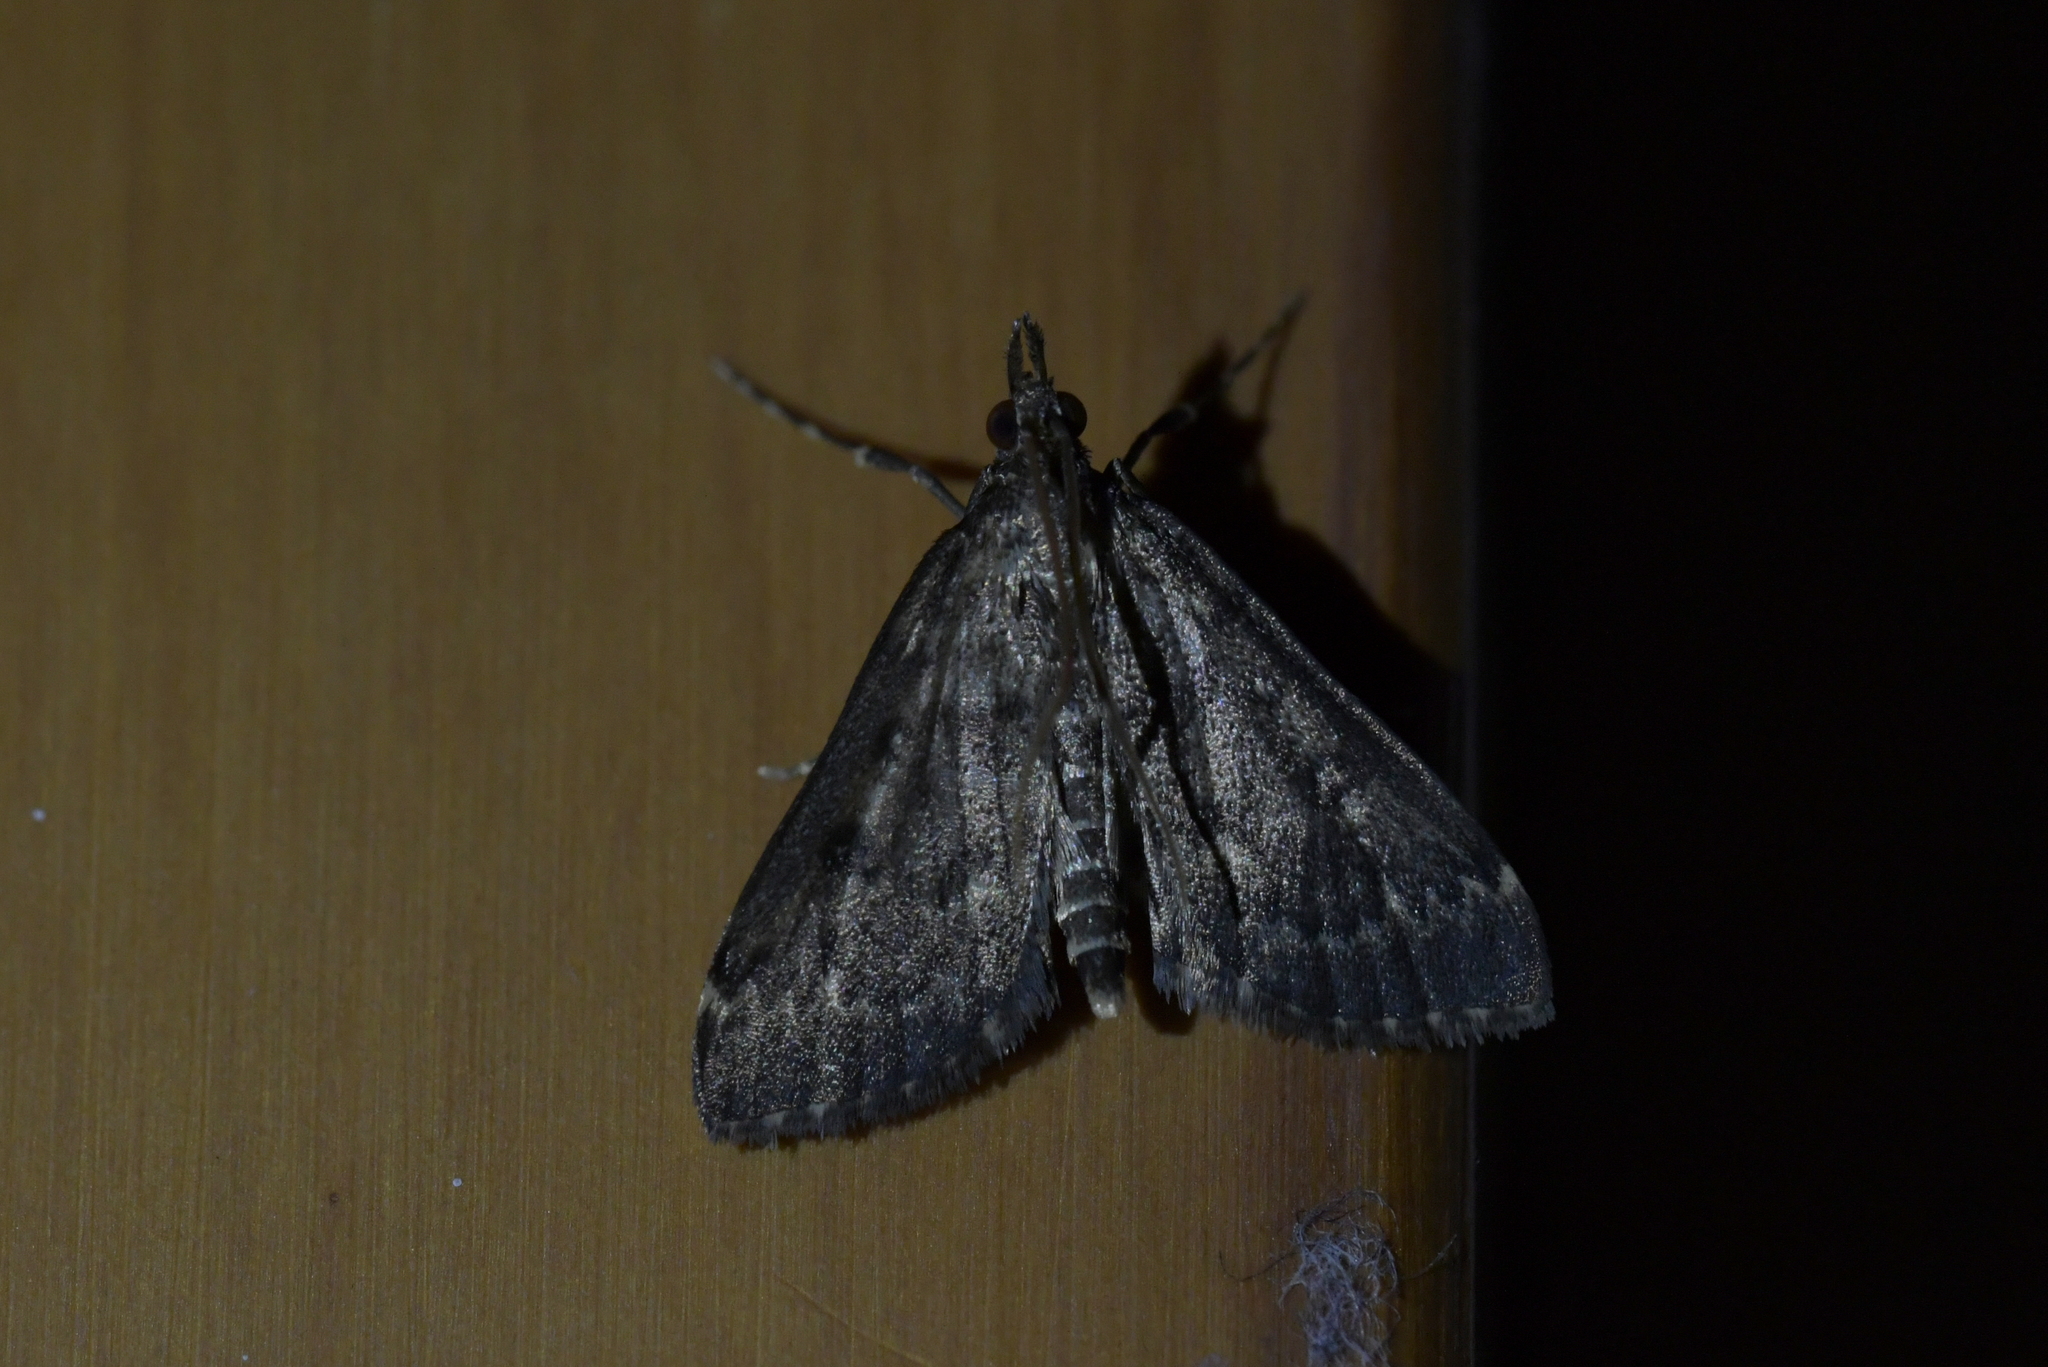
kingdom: Animalia
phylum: Arthropoda
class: Insecta
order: Lepidoptera
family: Crambidae
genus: Loxostege
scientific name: Loxostege Proternia philocapna
